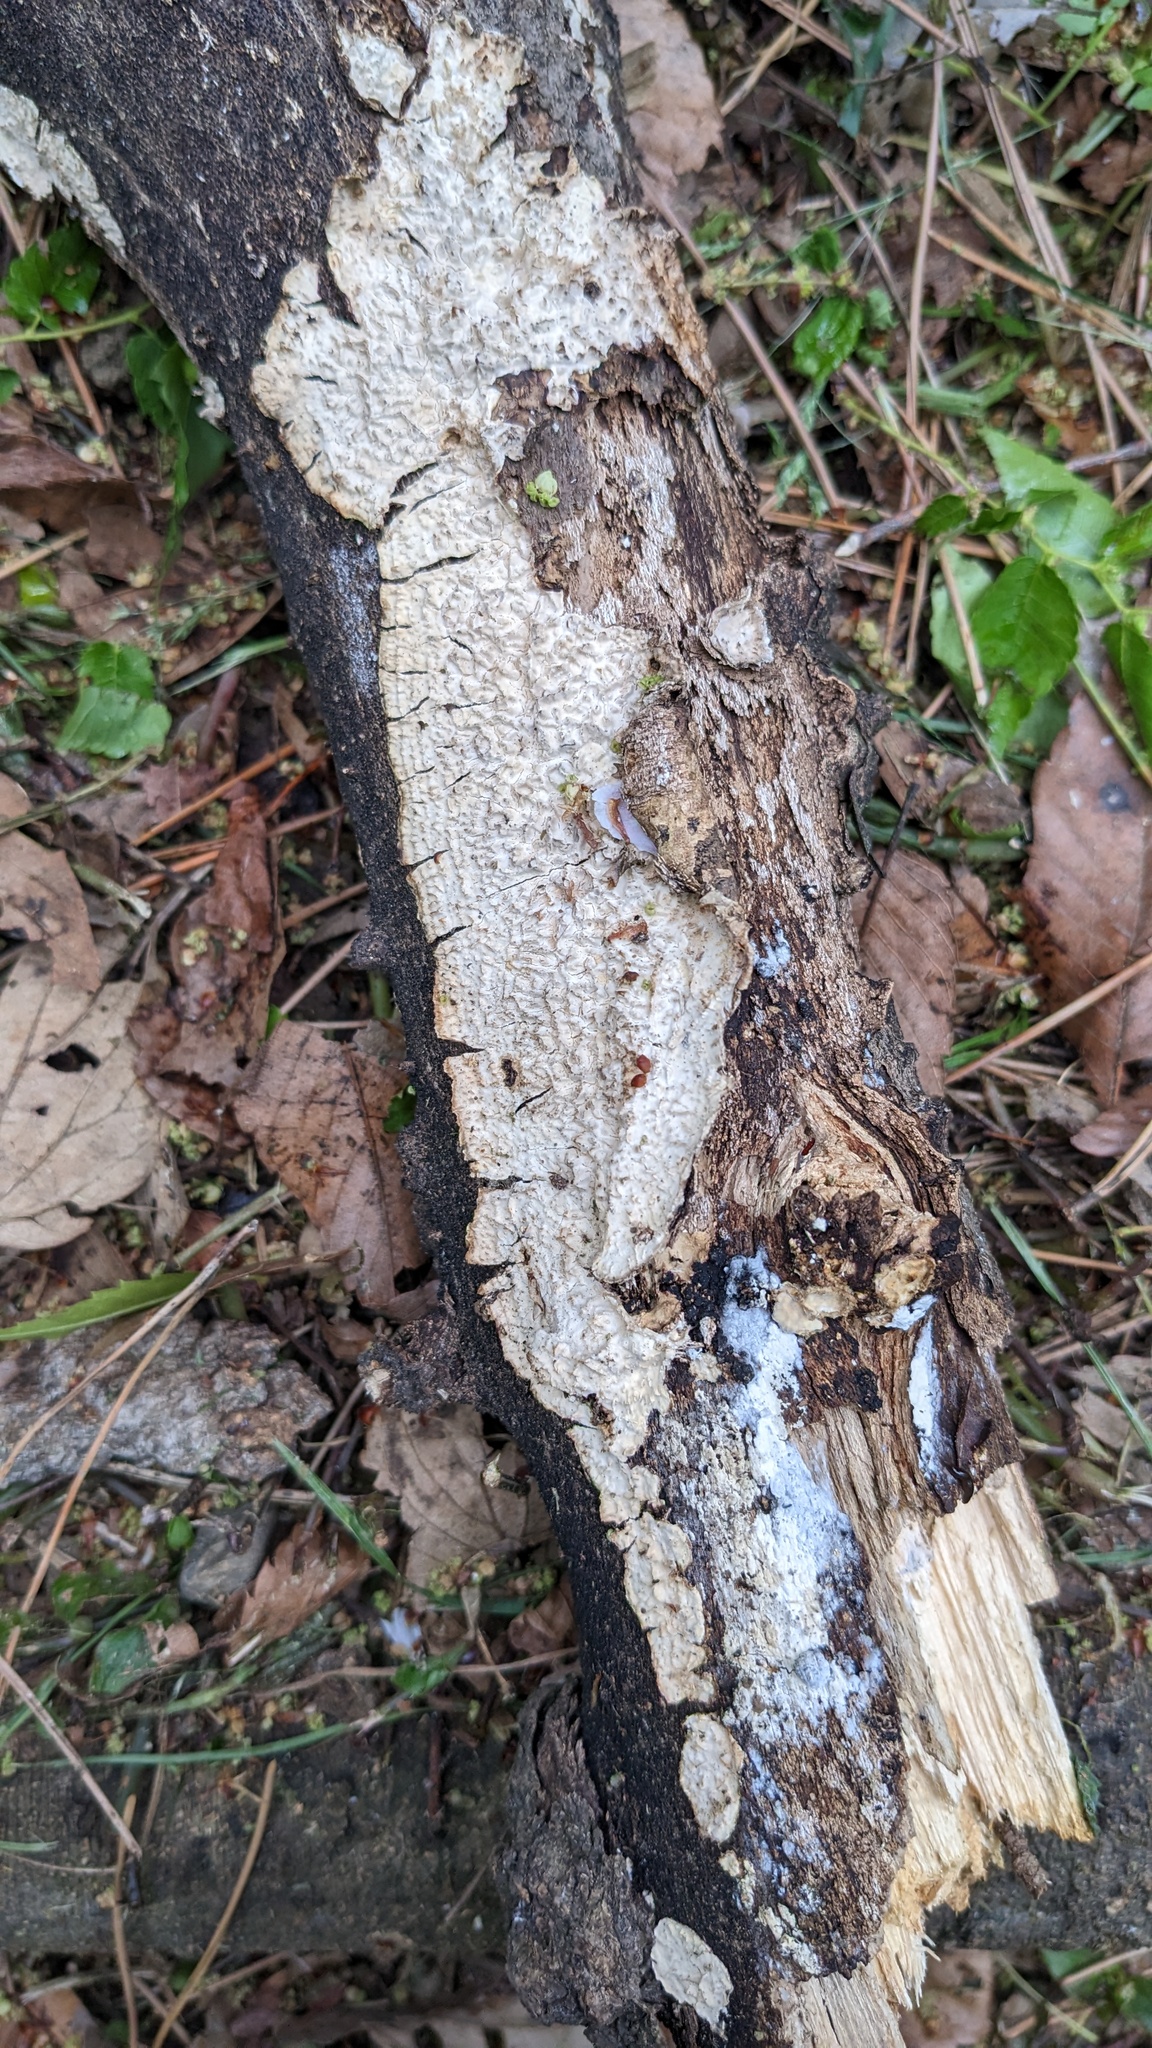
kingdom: Fungi
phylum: Basidiomycota
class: Agaricomycetes
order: Polyporales
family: Polyporaceae
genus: Lopharia
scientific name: Lopharia cinerascens
